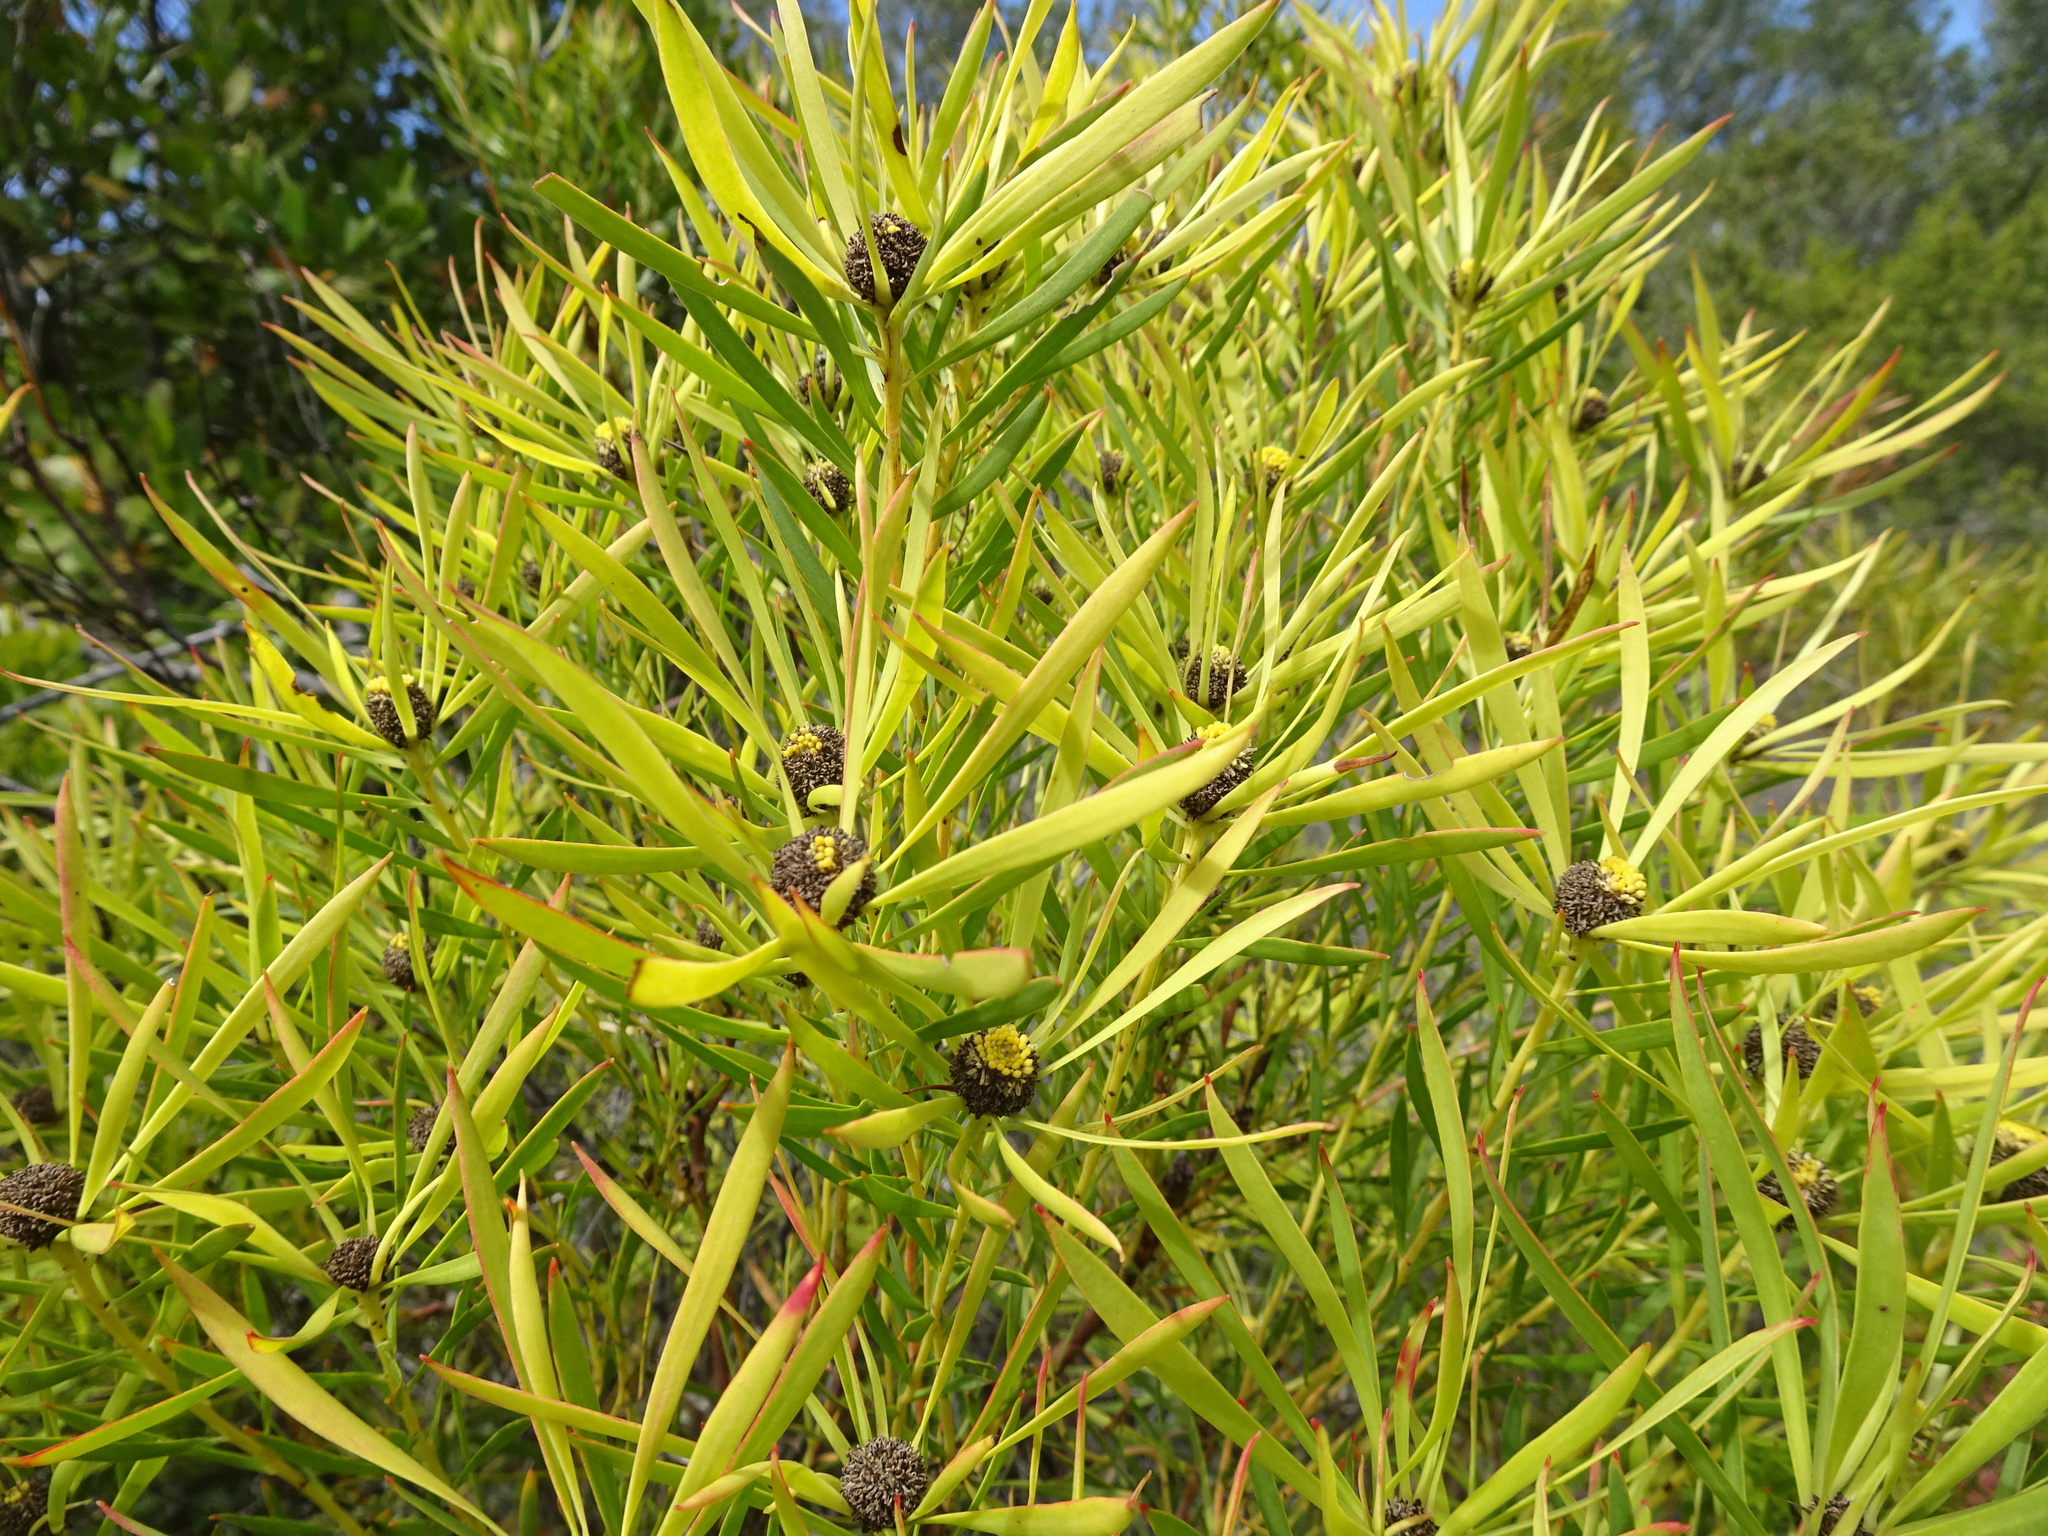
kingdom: Plantae
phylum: Tracheophyta
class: Magnoliopsida
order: Proteales
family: Proteaceae
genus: Leucadendron
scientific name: Leucadendron salignum
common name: Common sunshine conebush
